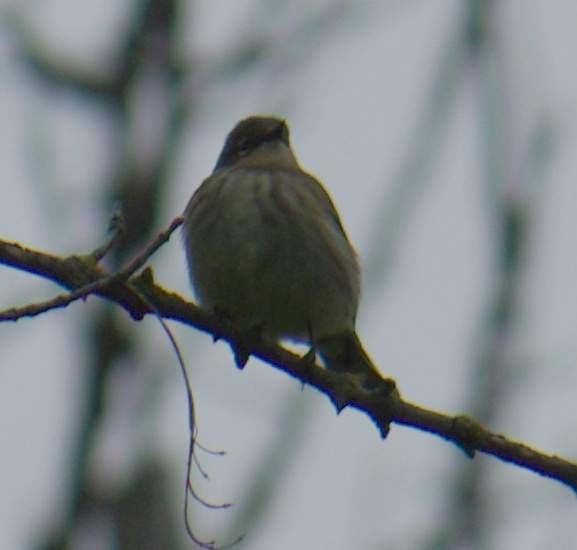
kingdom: Animalia
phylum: Chordata
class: Aves
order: Passeriformes
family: Parulidae
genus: Setophaga
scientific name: Setophaga coronata
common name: Myrtle warbler
